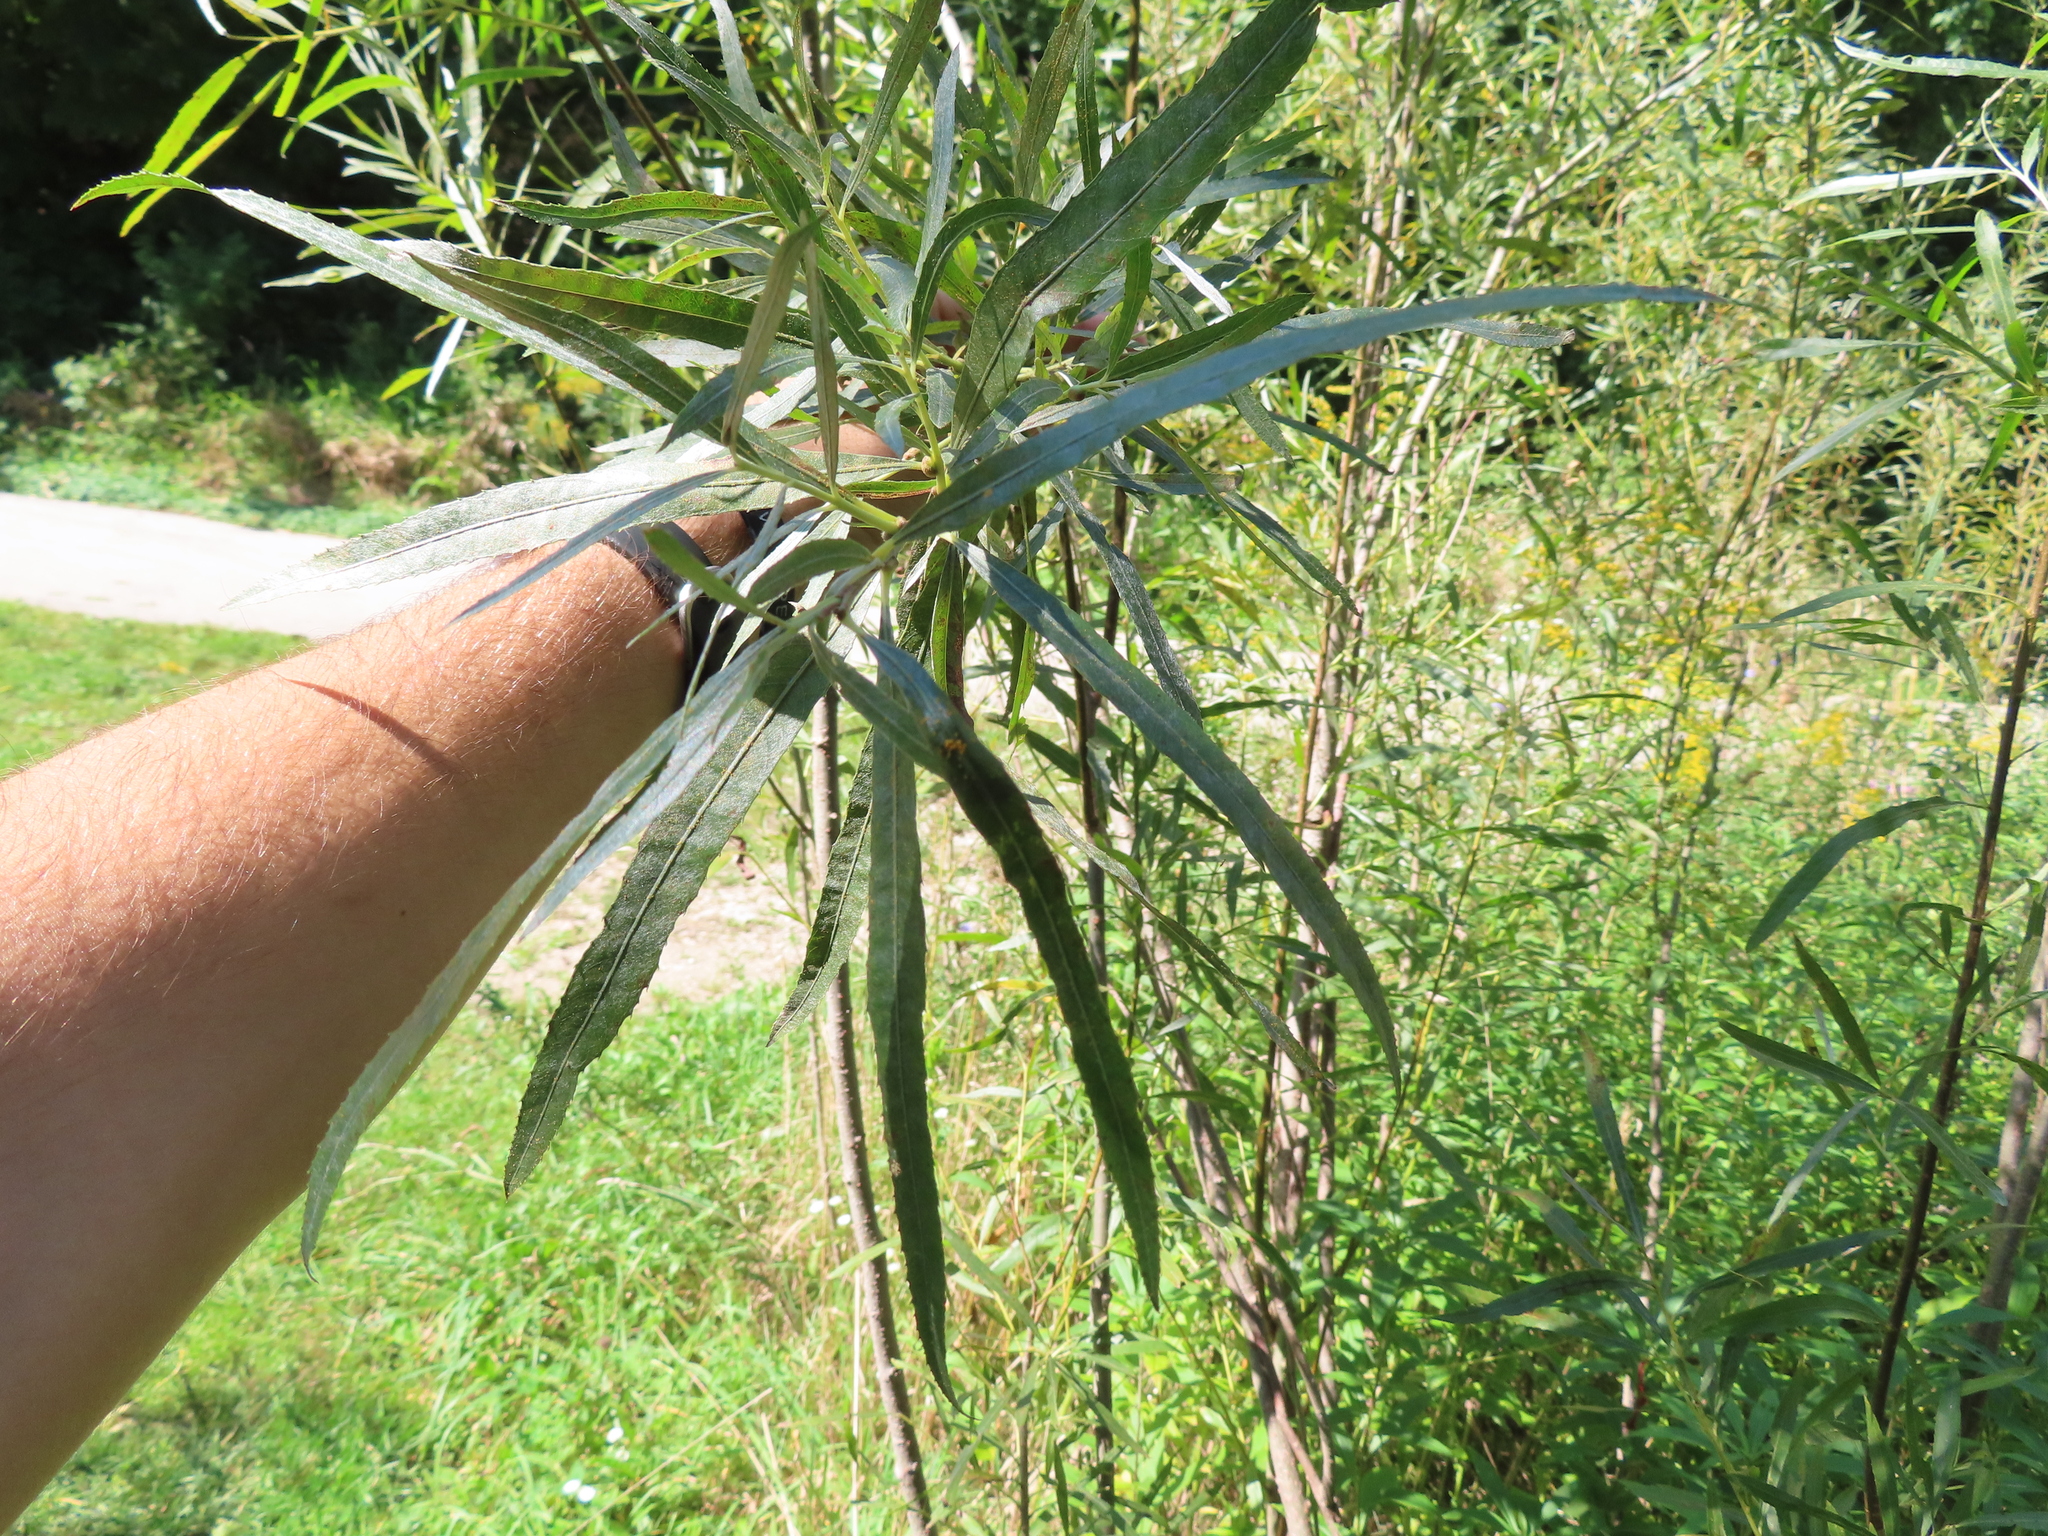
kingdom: Plantae
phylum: Tracheophyta
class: Magnoliopsida
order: Malpighiales
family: Salicaceae
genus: Salix
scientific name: Salix interior
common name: Sandbar willow
